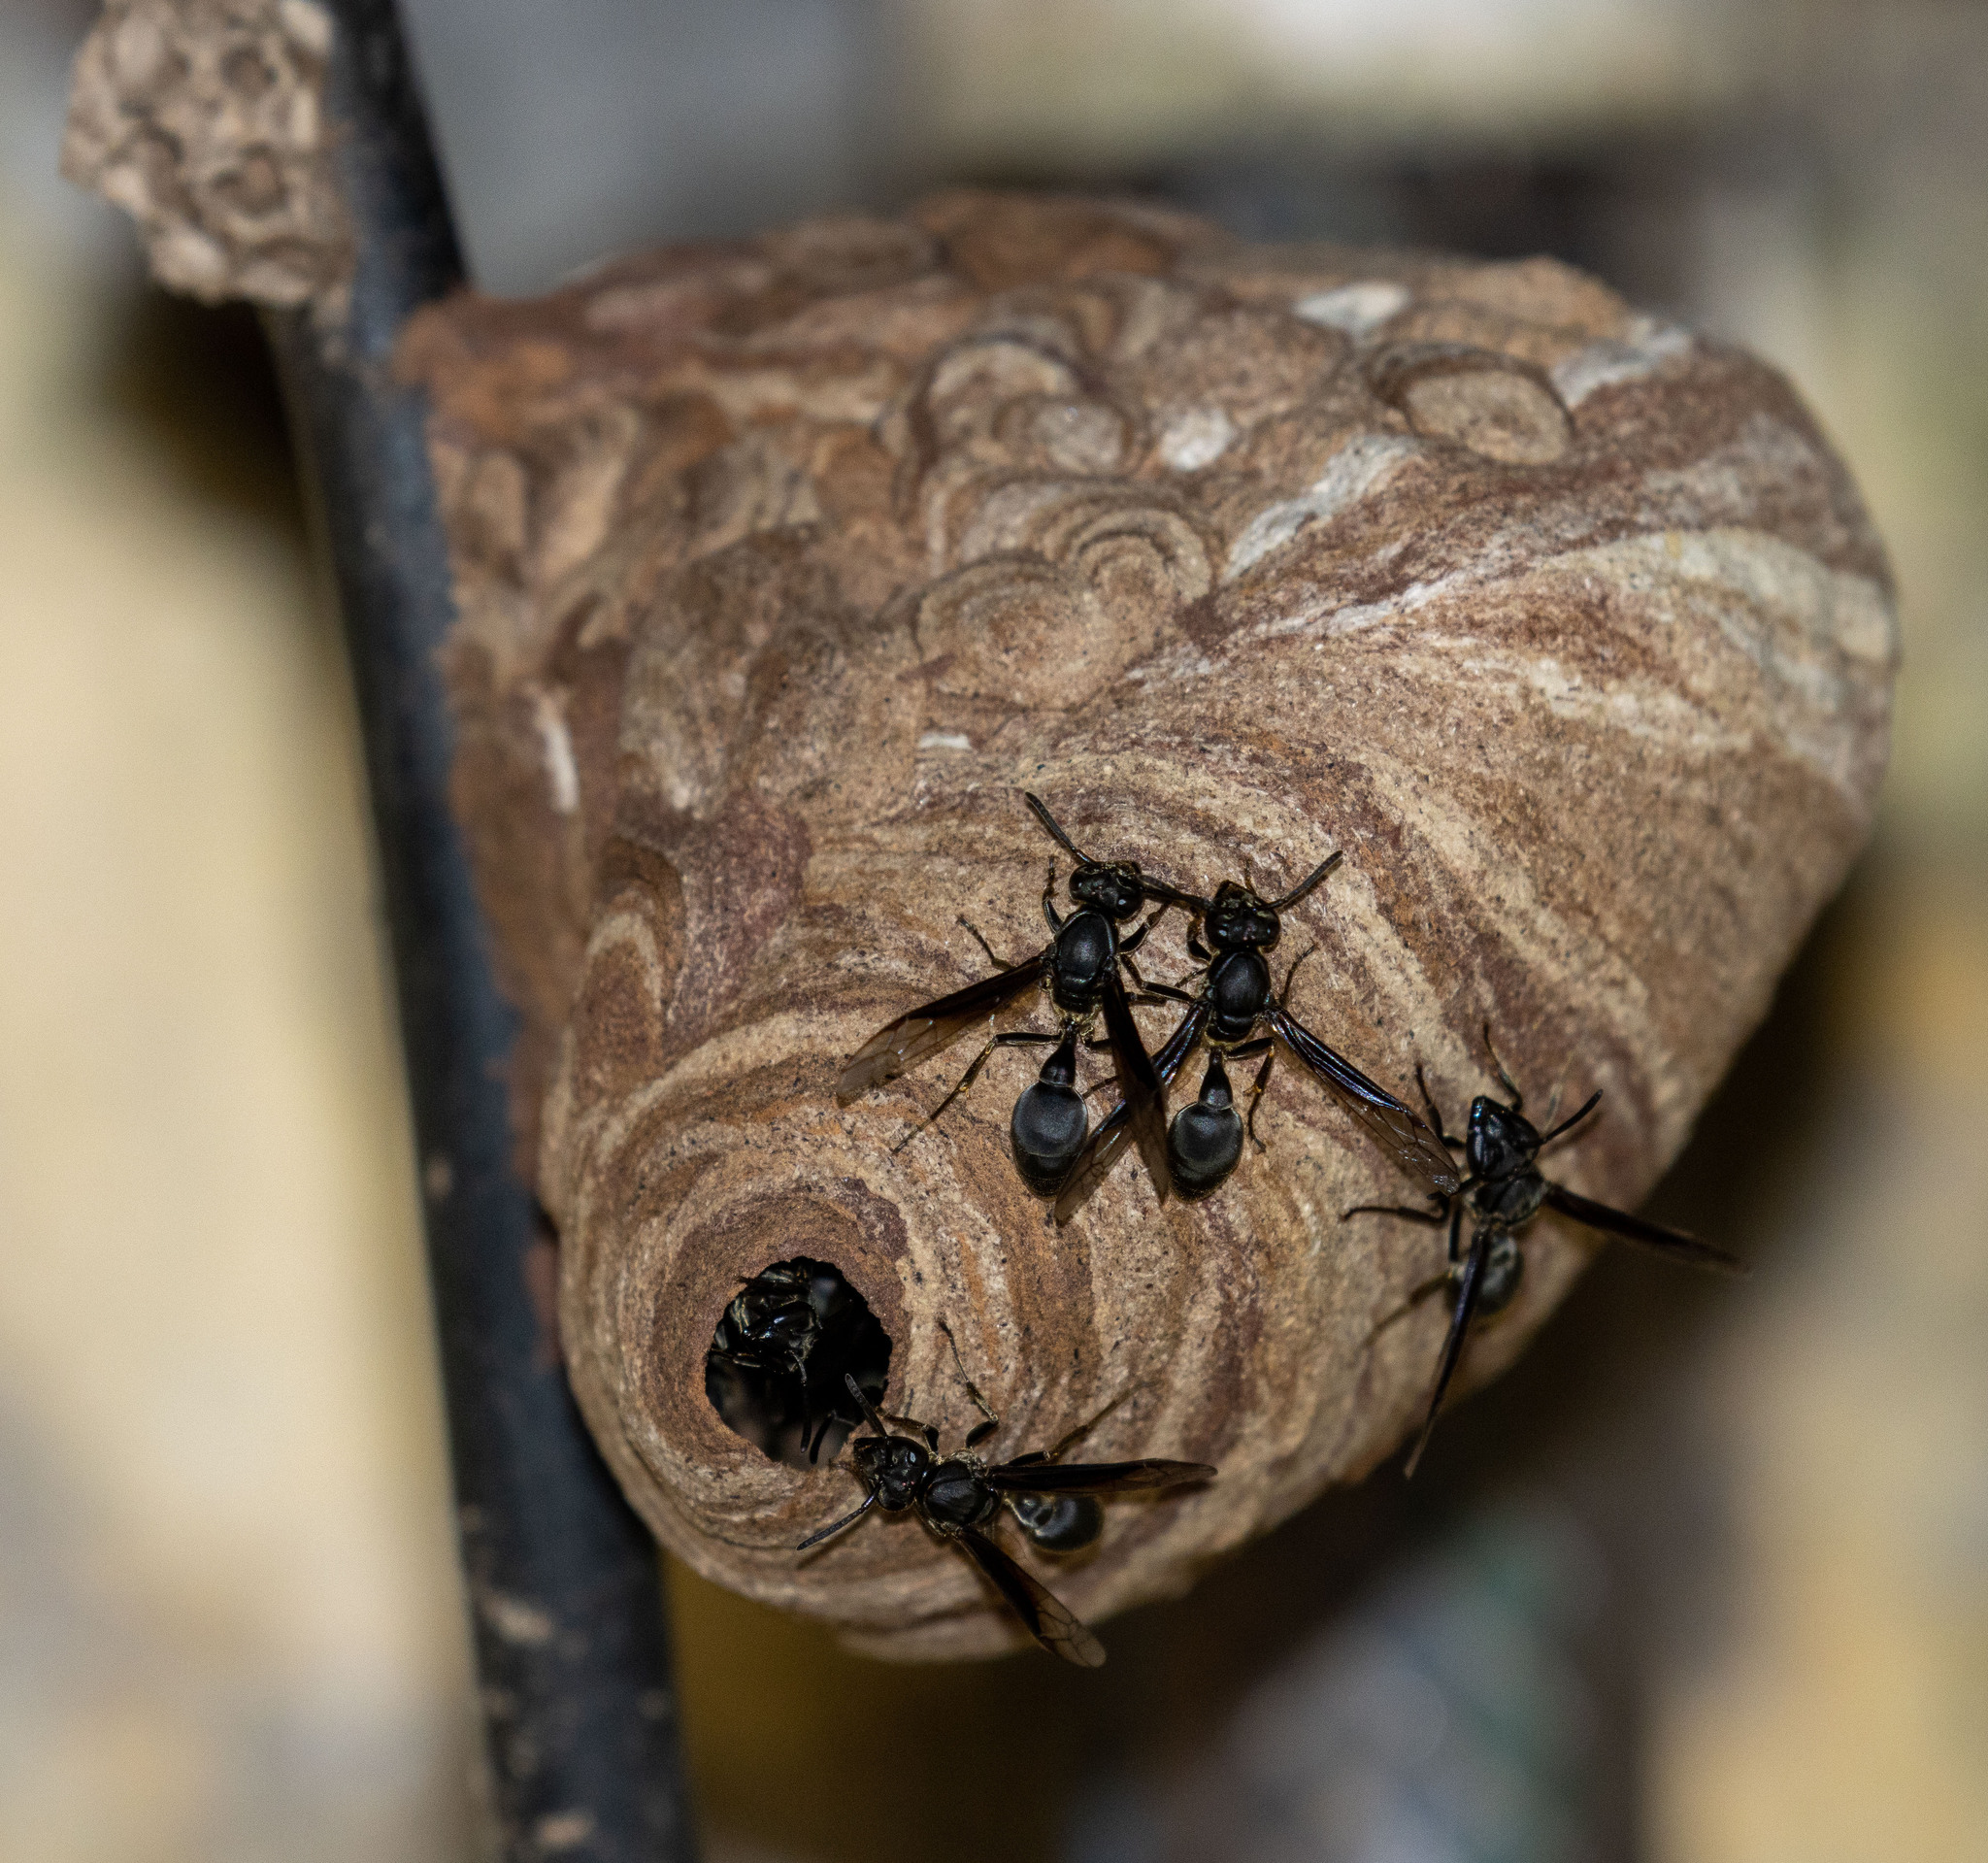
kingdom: Animalia
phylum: Arthropoda
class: Insecta
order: Hymenoptera
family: Eumenidae
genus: Polybia
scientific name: Polybia ignobilis
